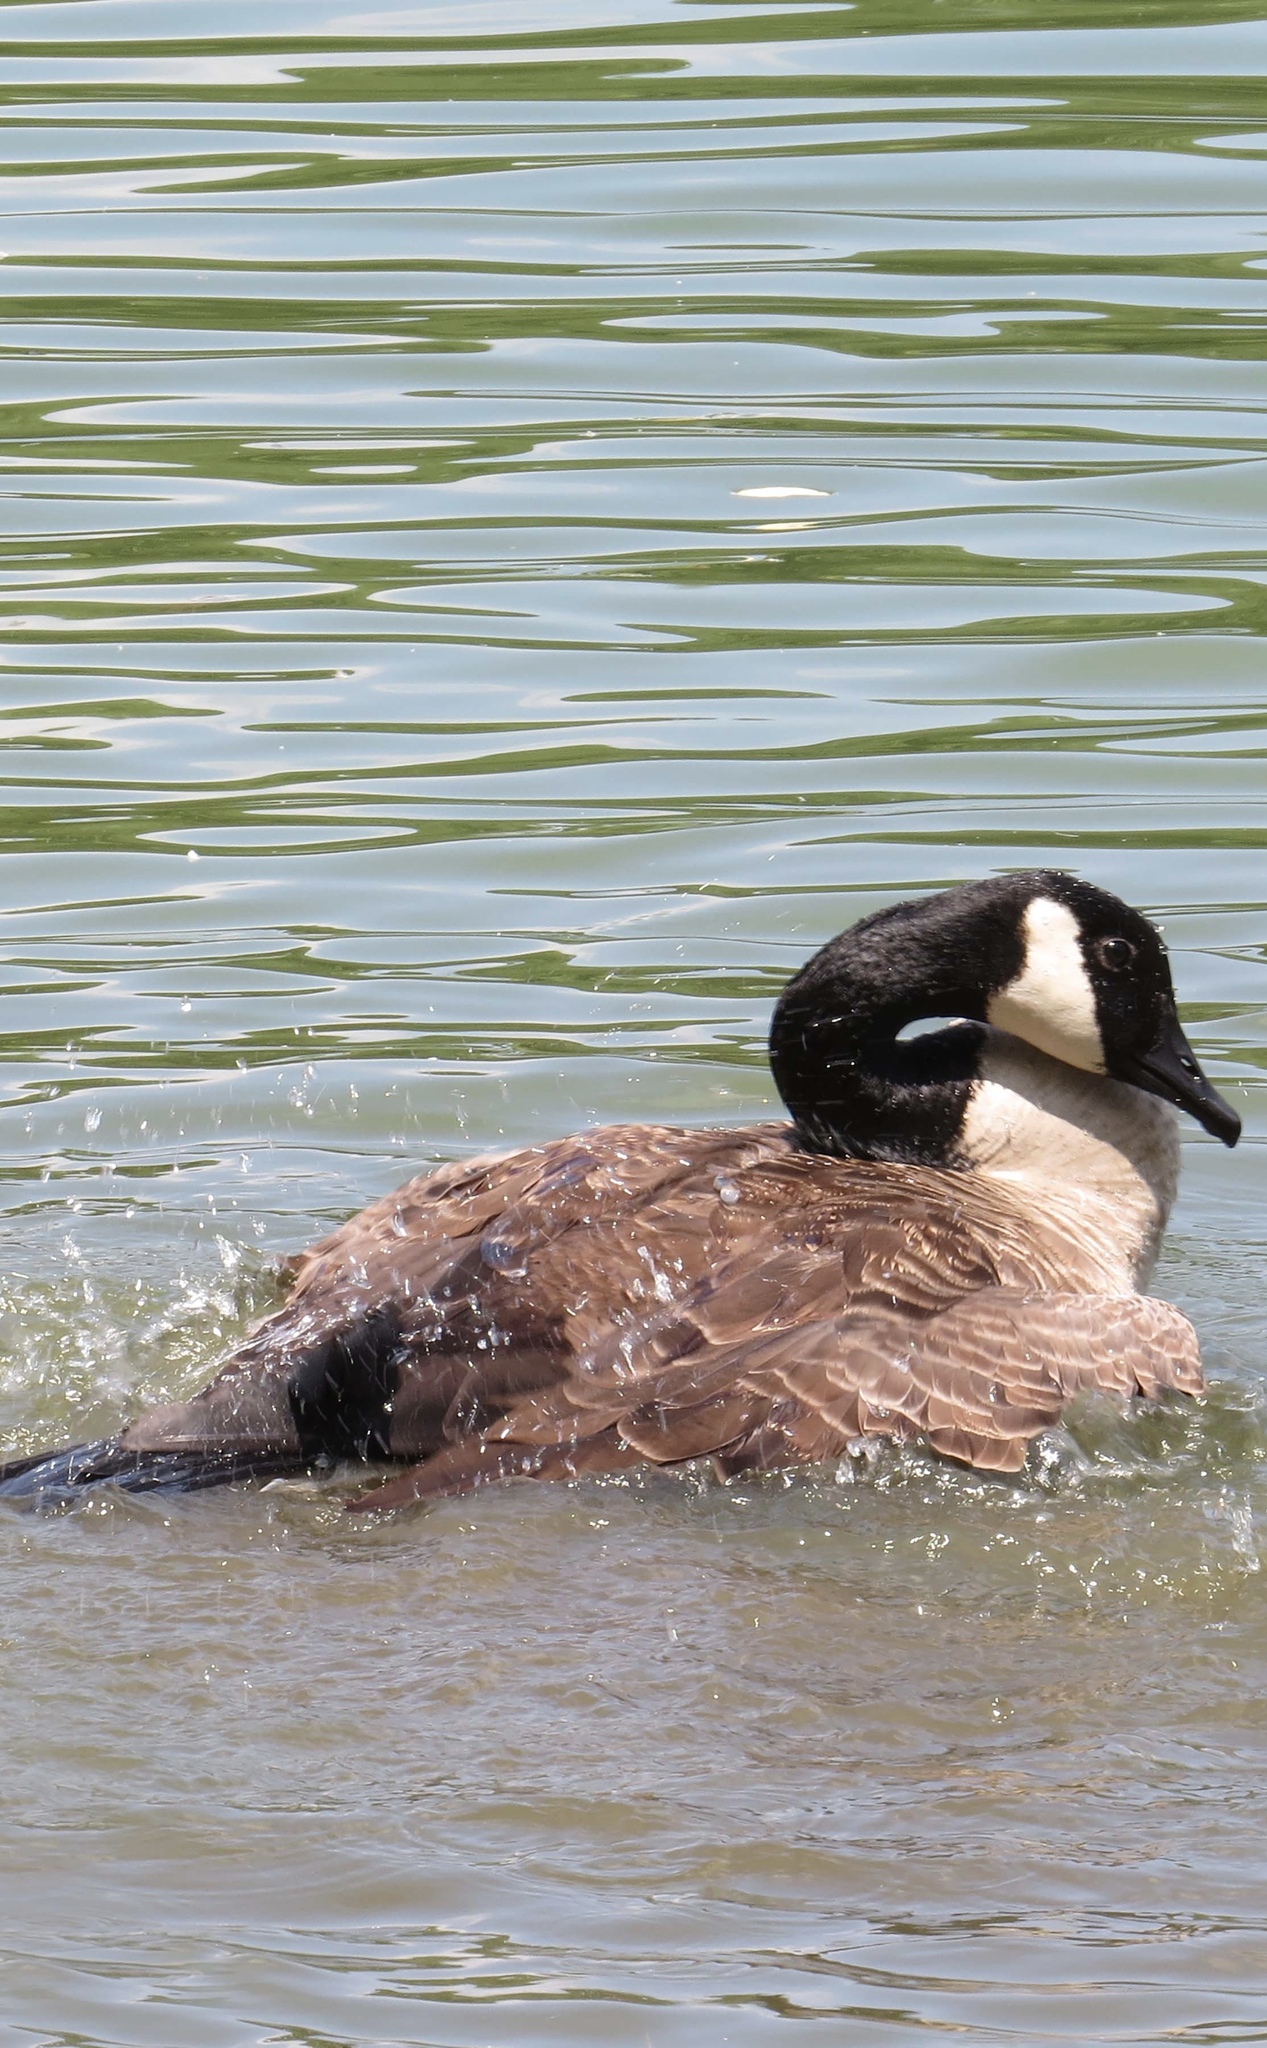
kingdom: Animalia
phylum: Chordata
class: Aves
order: Anseriformes
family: Anatidae
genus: Branta
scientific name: Branta canadensis
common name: Canada goose
